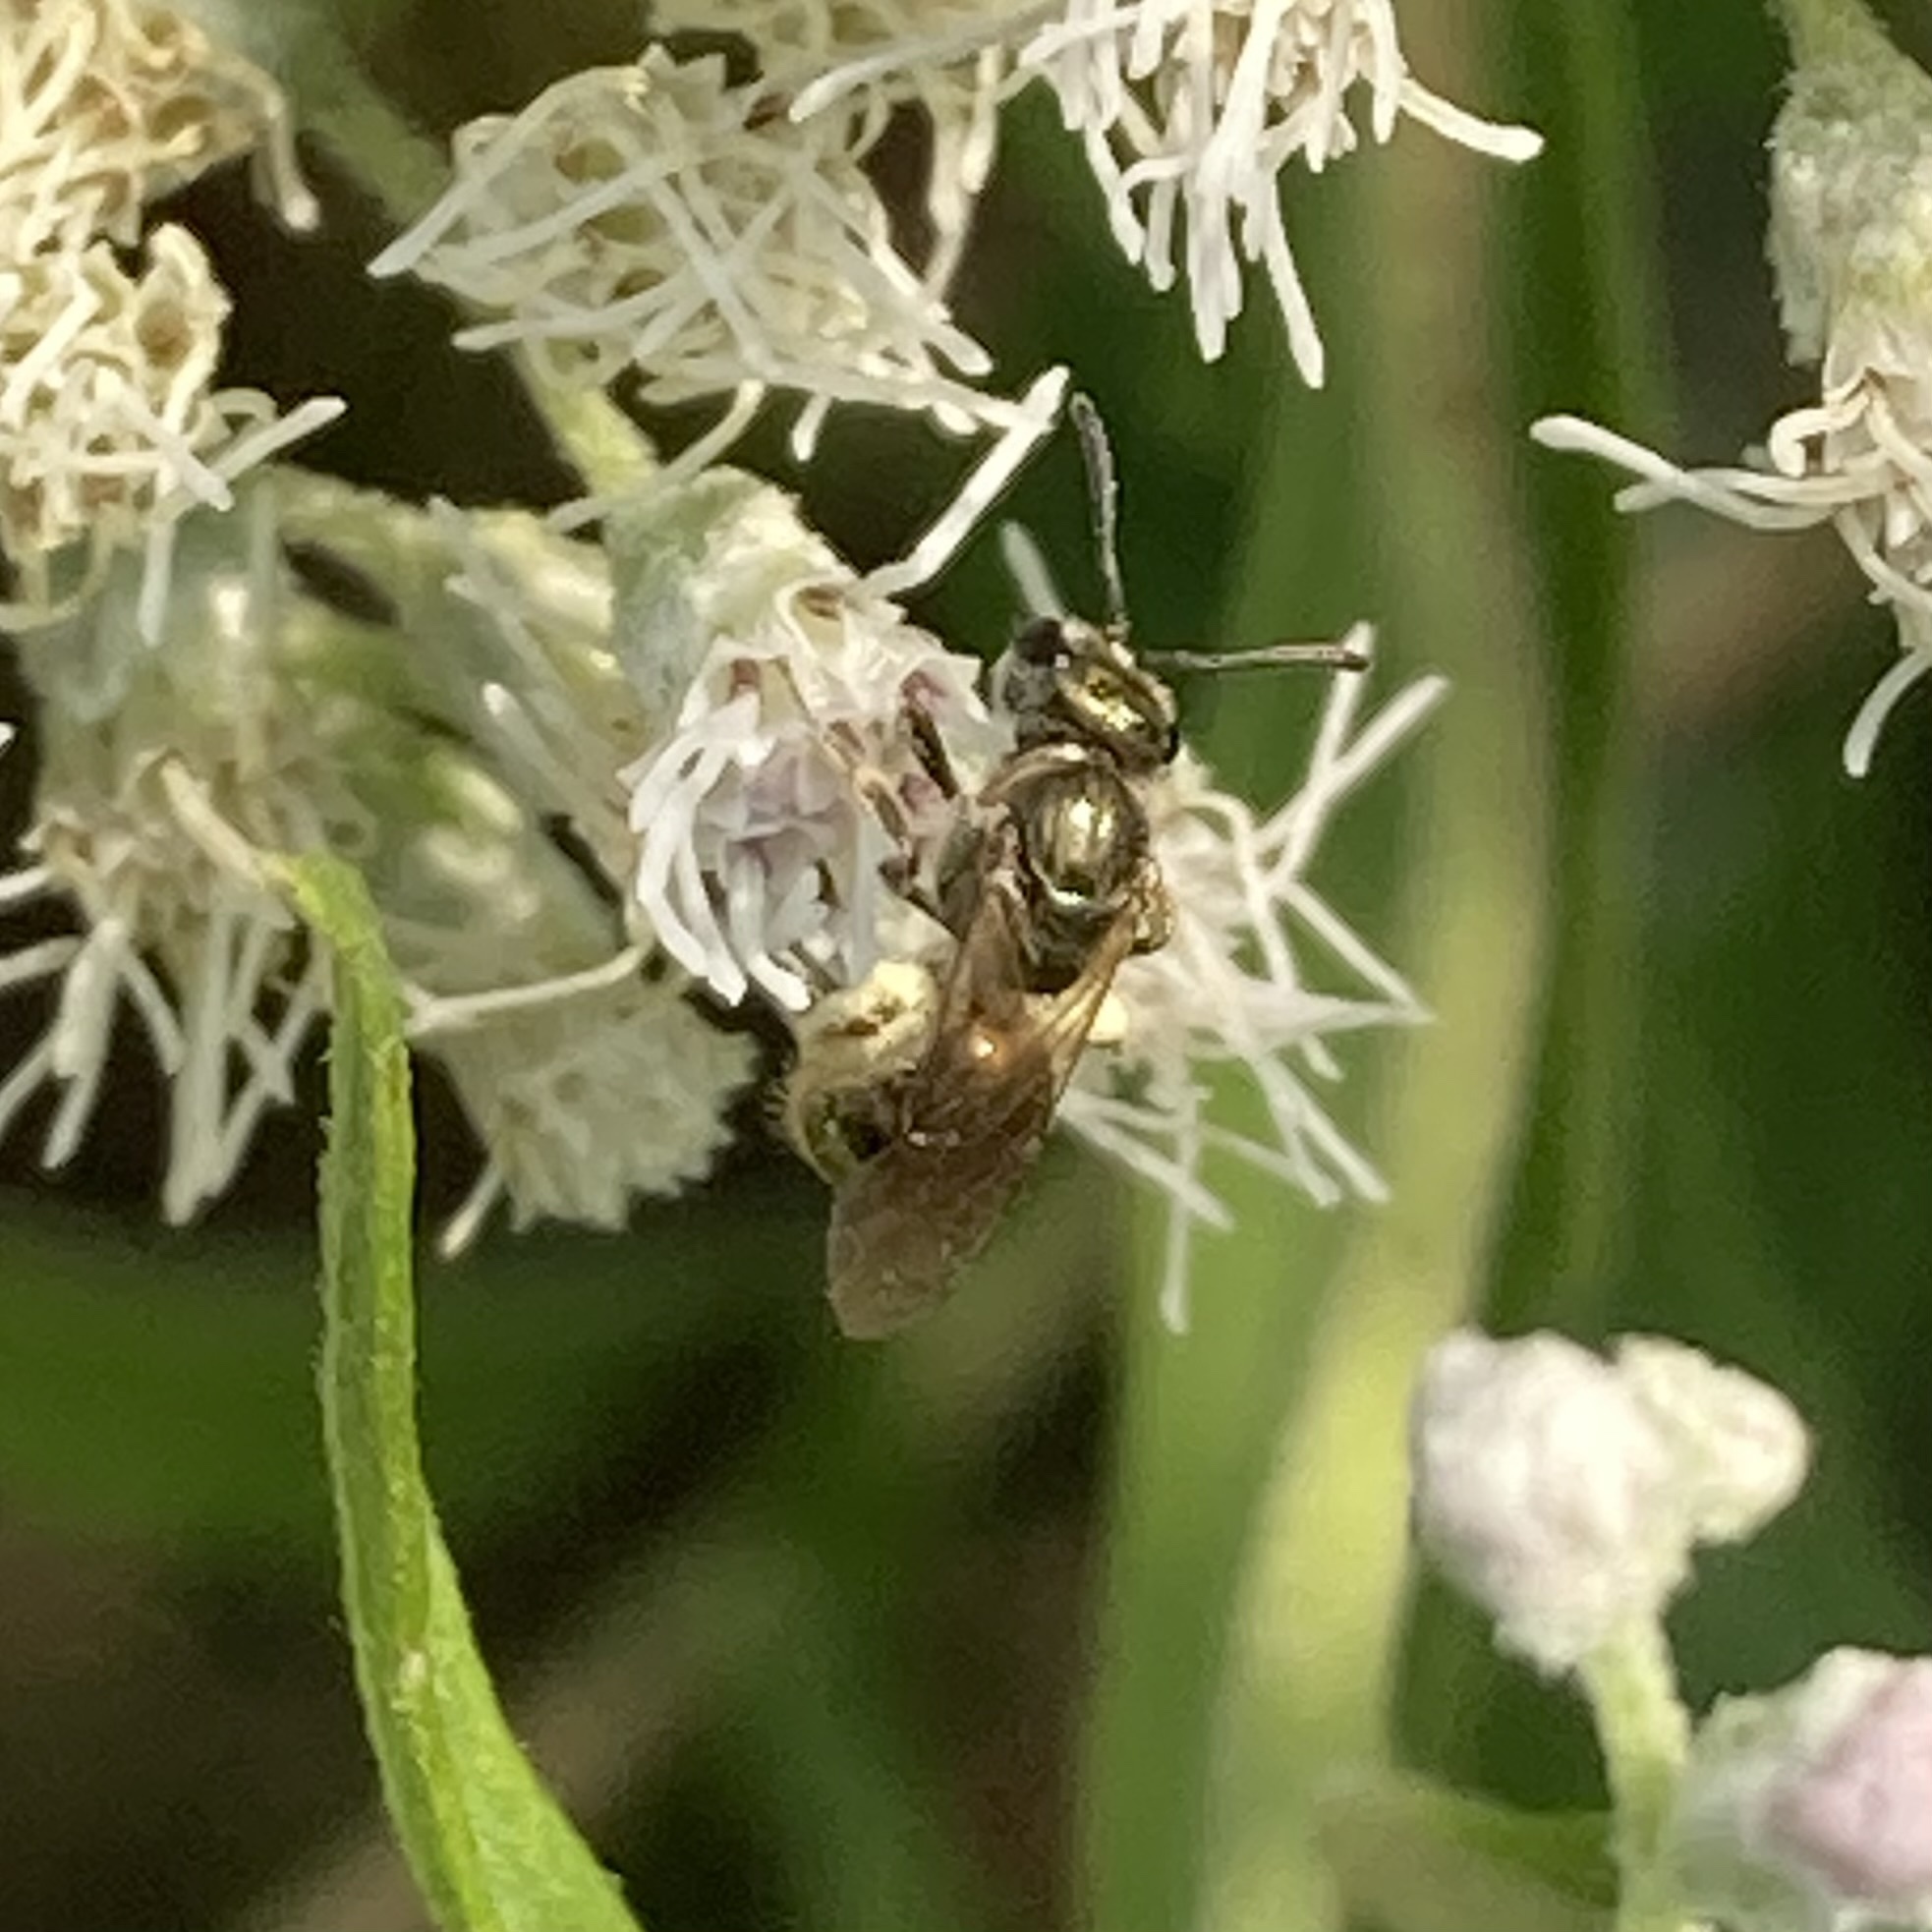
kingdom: Animalia
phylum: Arthropoda
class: Insecta
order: Hymenoptera
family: Halictidae
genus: Dialictus
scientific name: Dialictus
